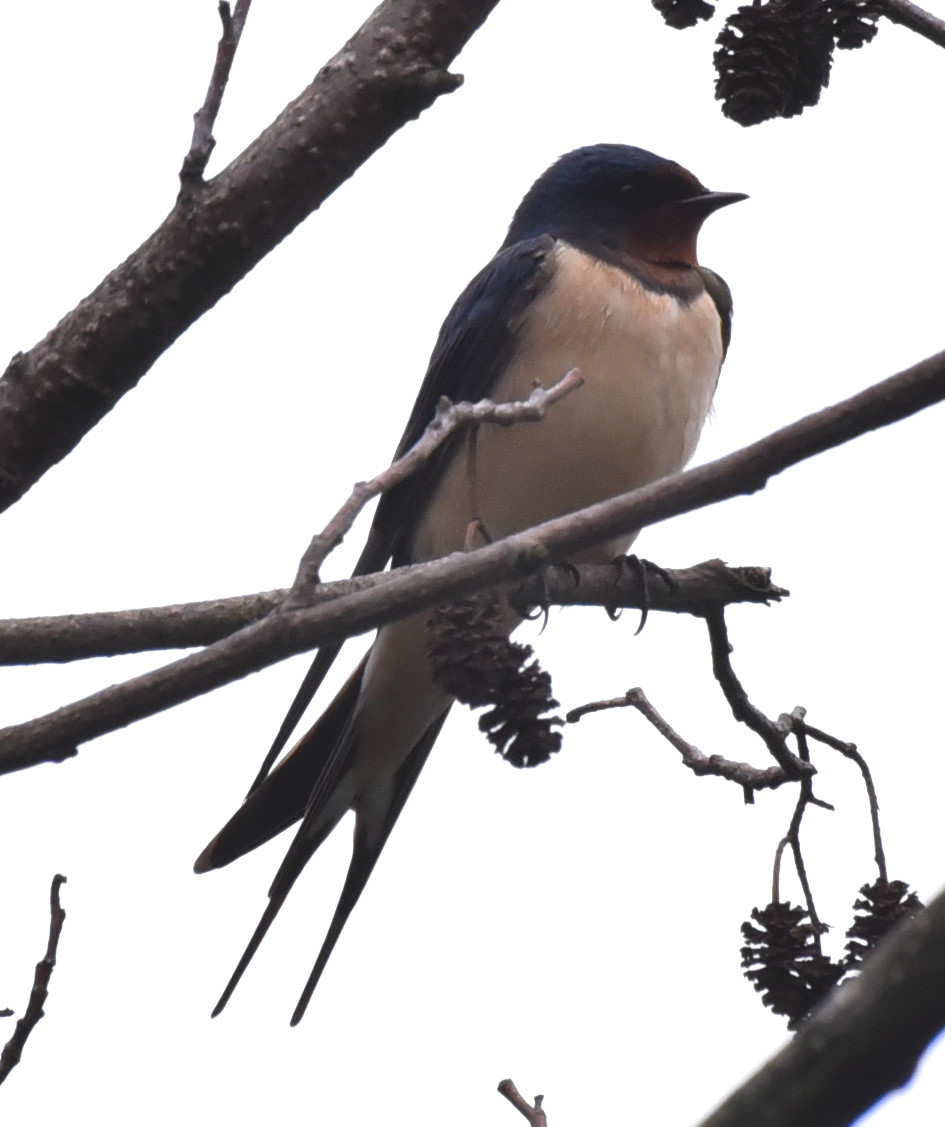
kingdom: Animalia
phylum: Chordata
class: Aves
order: Passeriformes
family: Hirundinidae
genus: Hirundo
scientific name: Hirundo rustica
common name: Barn swallow
